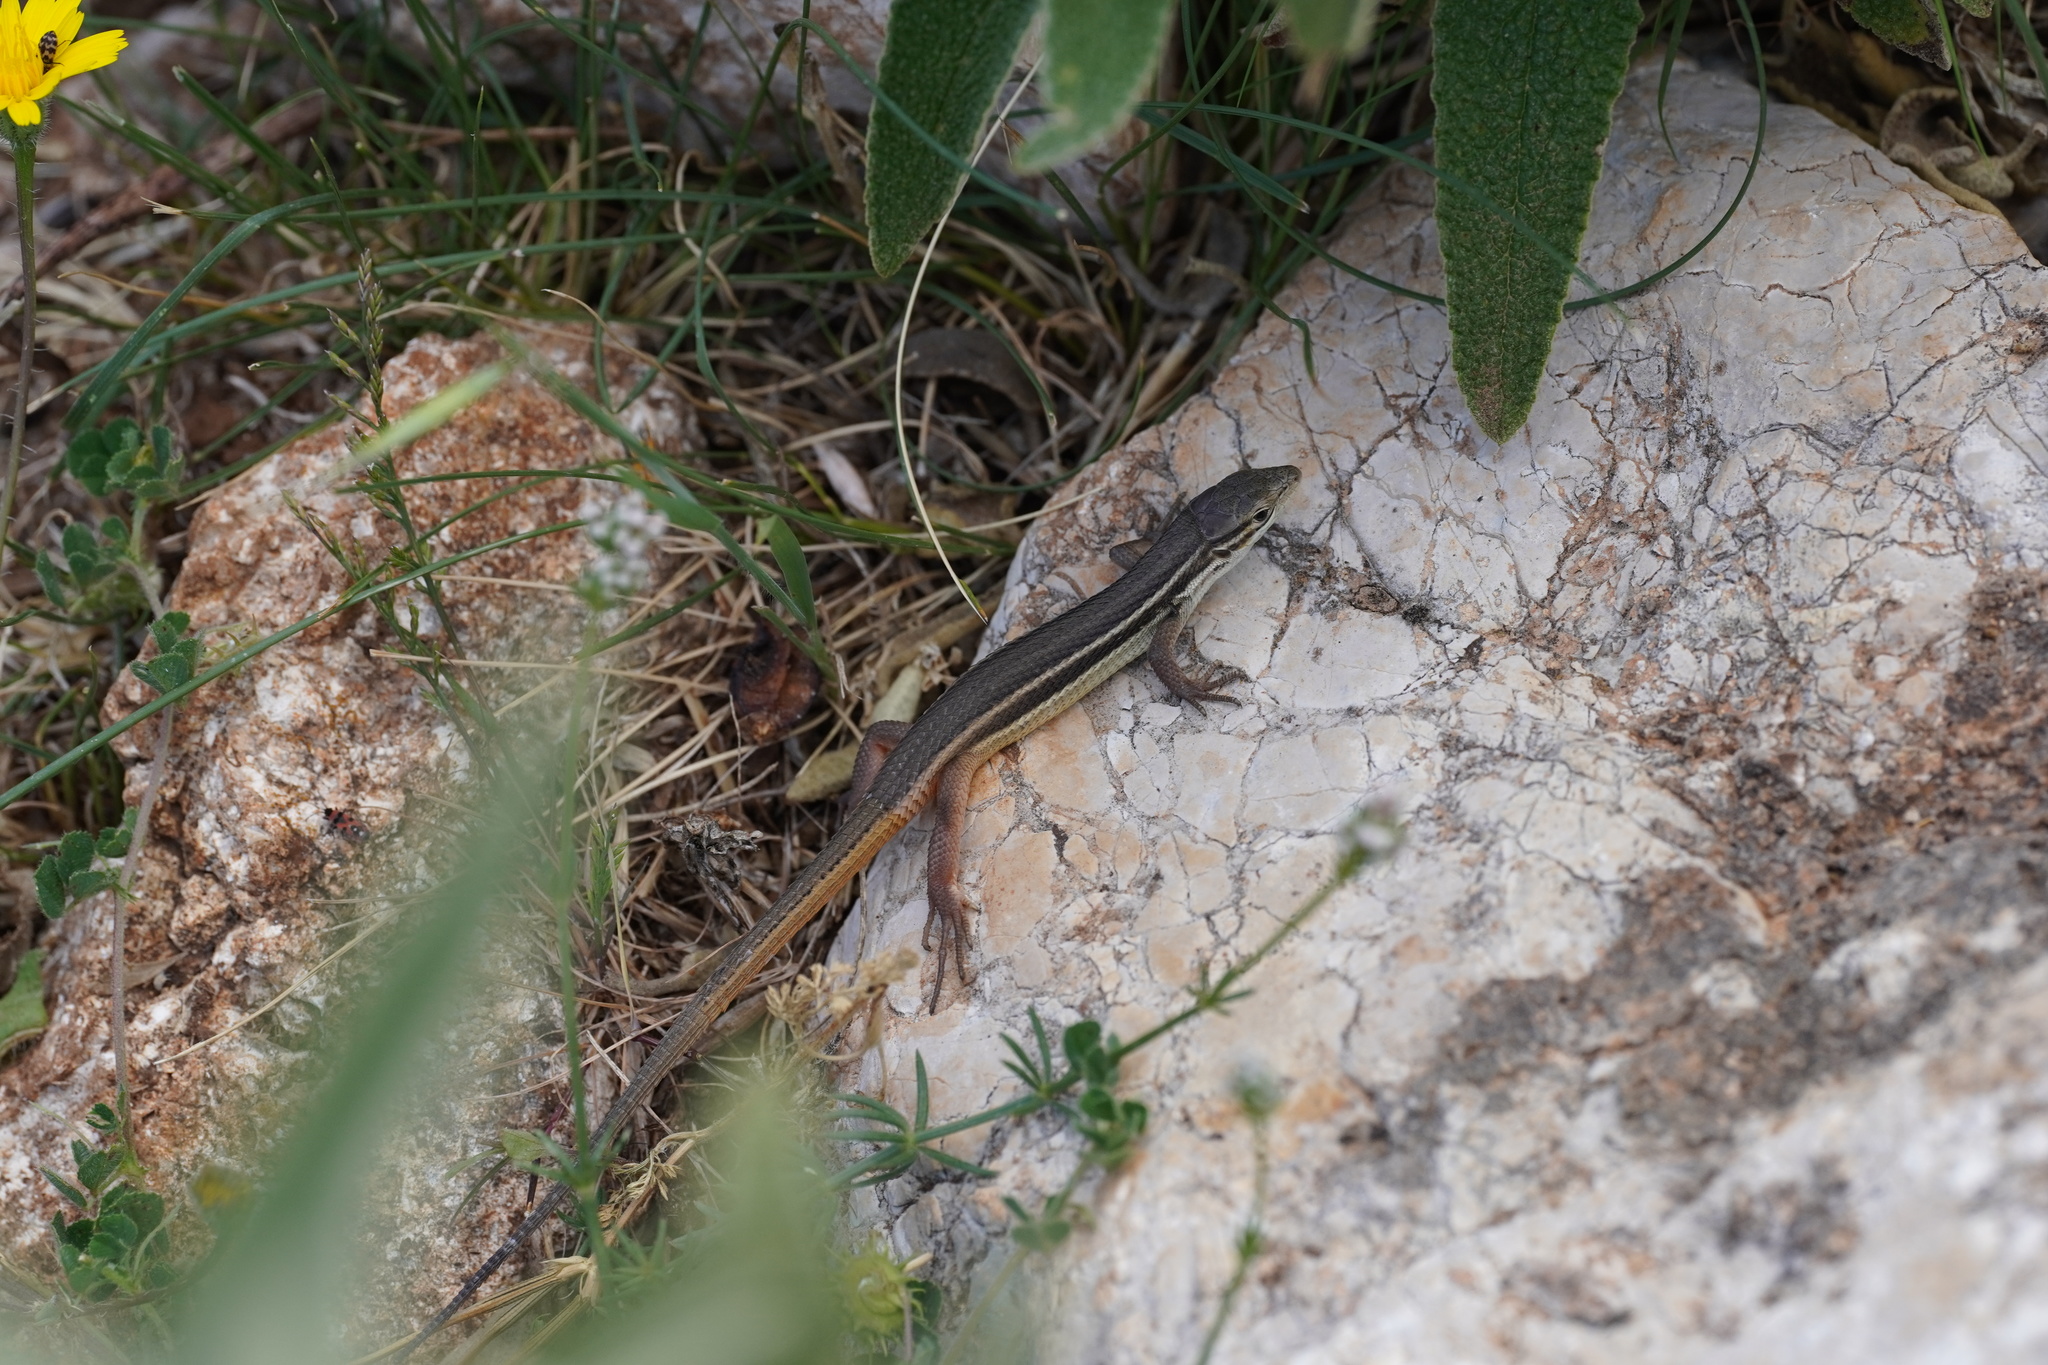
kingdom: Animalia
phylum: Chordata
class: Squamata
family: Lacertidae
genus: Psammodromus
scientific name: Psammodromus algirus
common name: Algerian psammodromus
